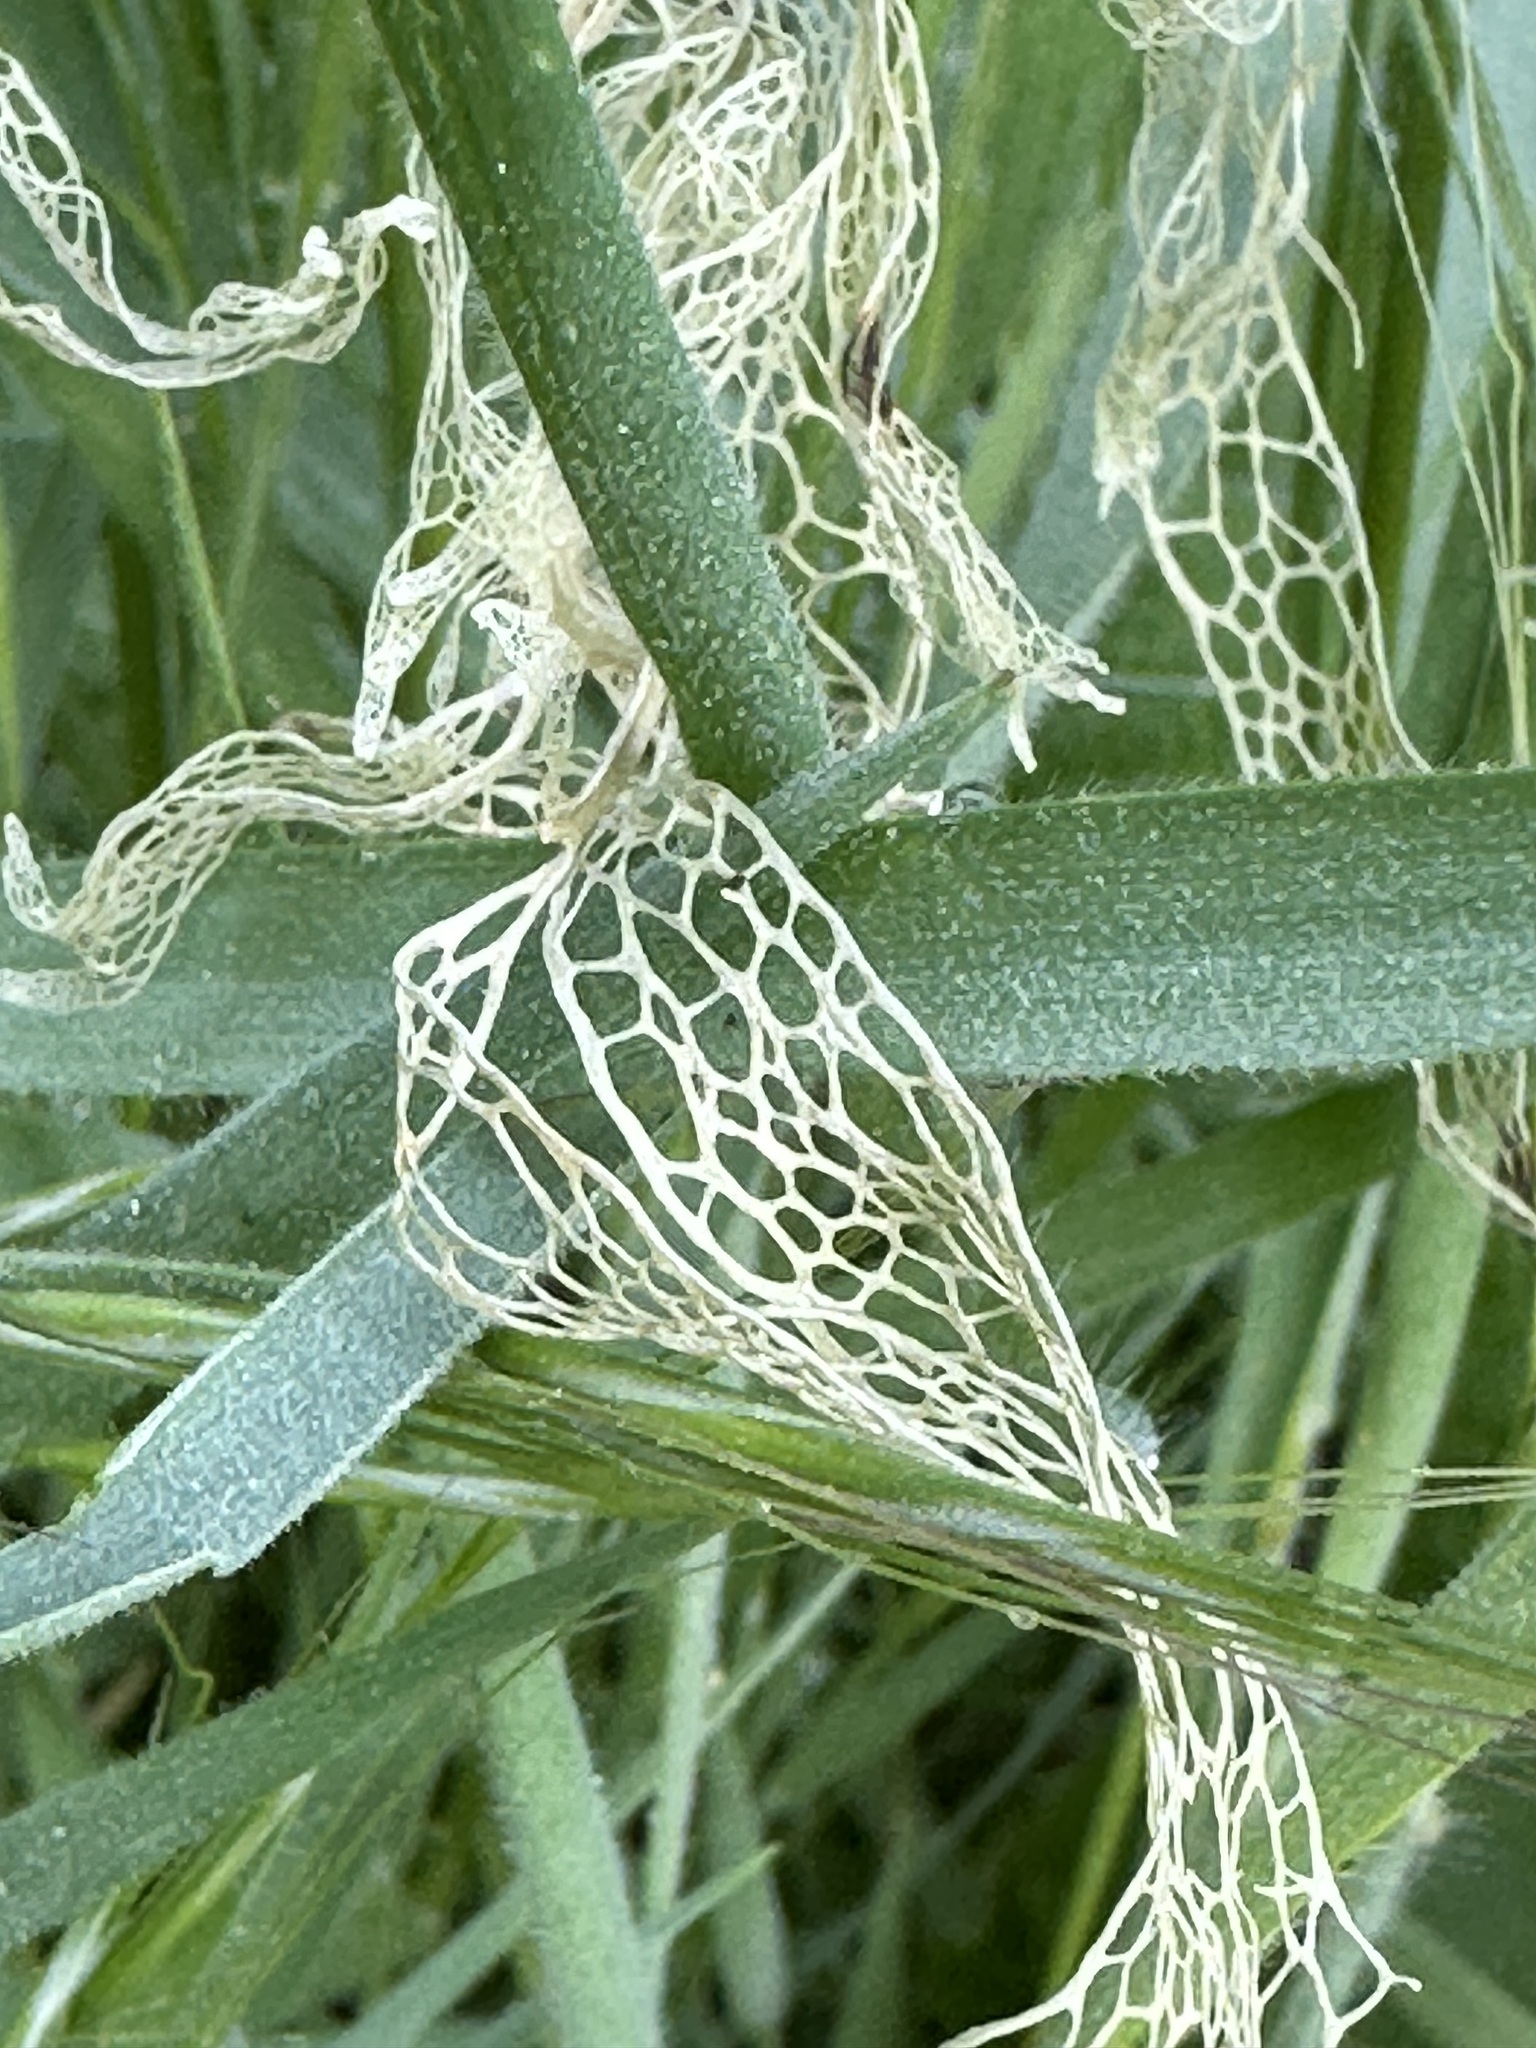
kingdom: Fungi
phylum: Ascomycota
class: Lecanoromycetes
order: Lecanorales
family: Ramalinaceae
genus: Ramalina
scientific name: Ramalina menziesii
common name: Lace lichen
